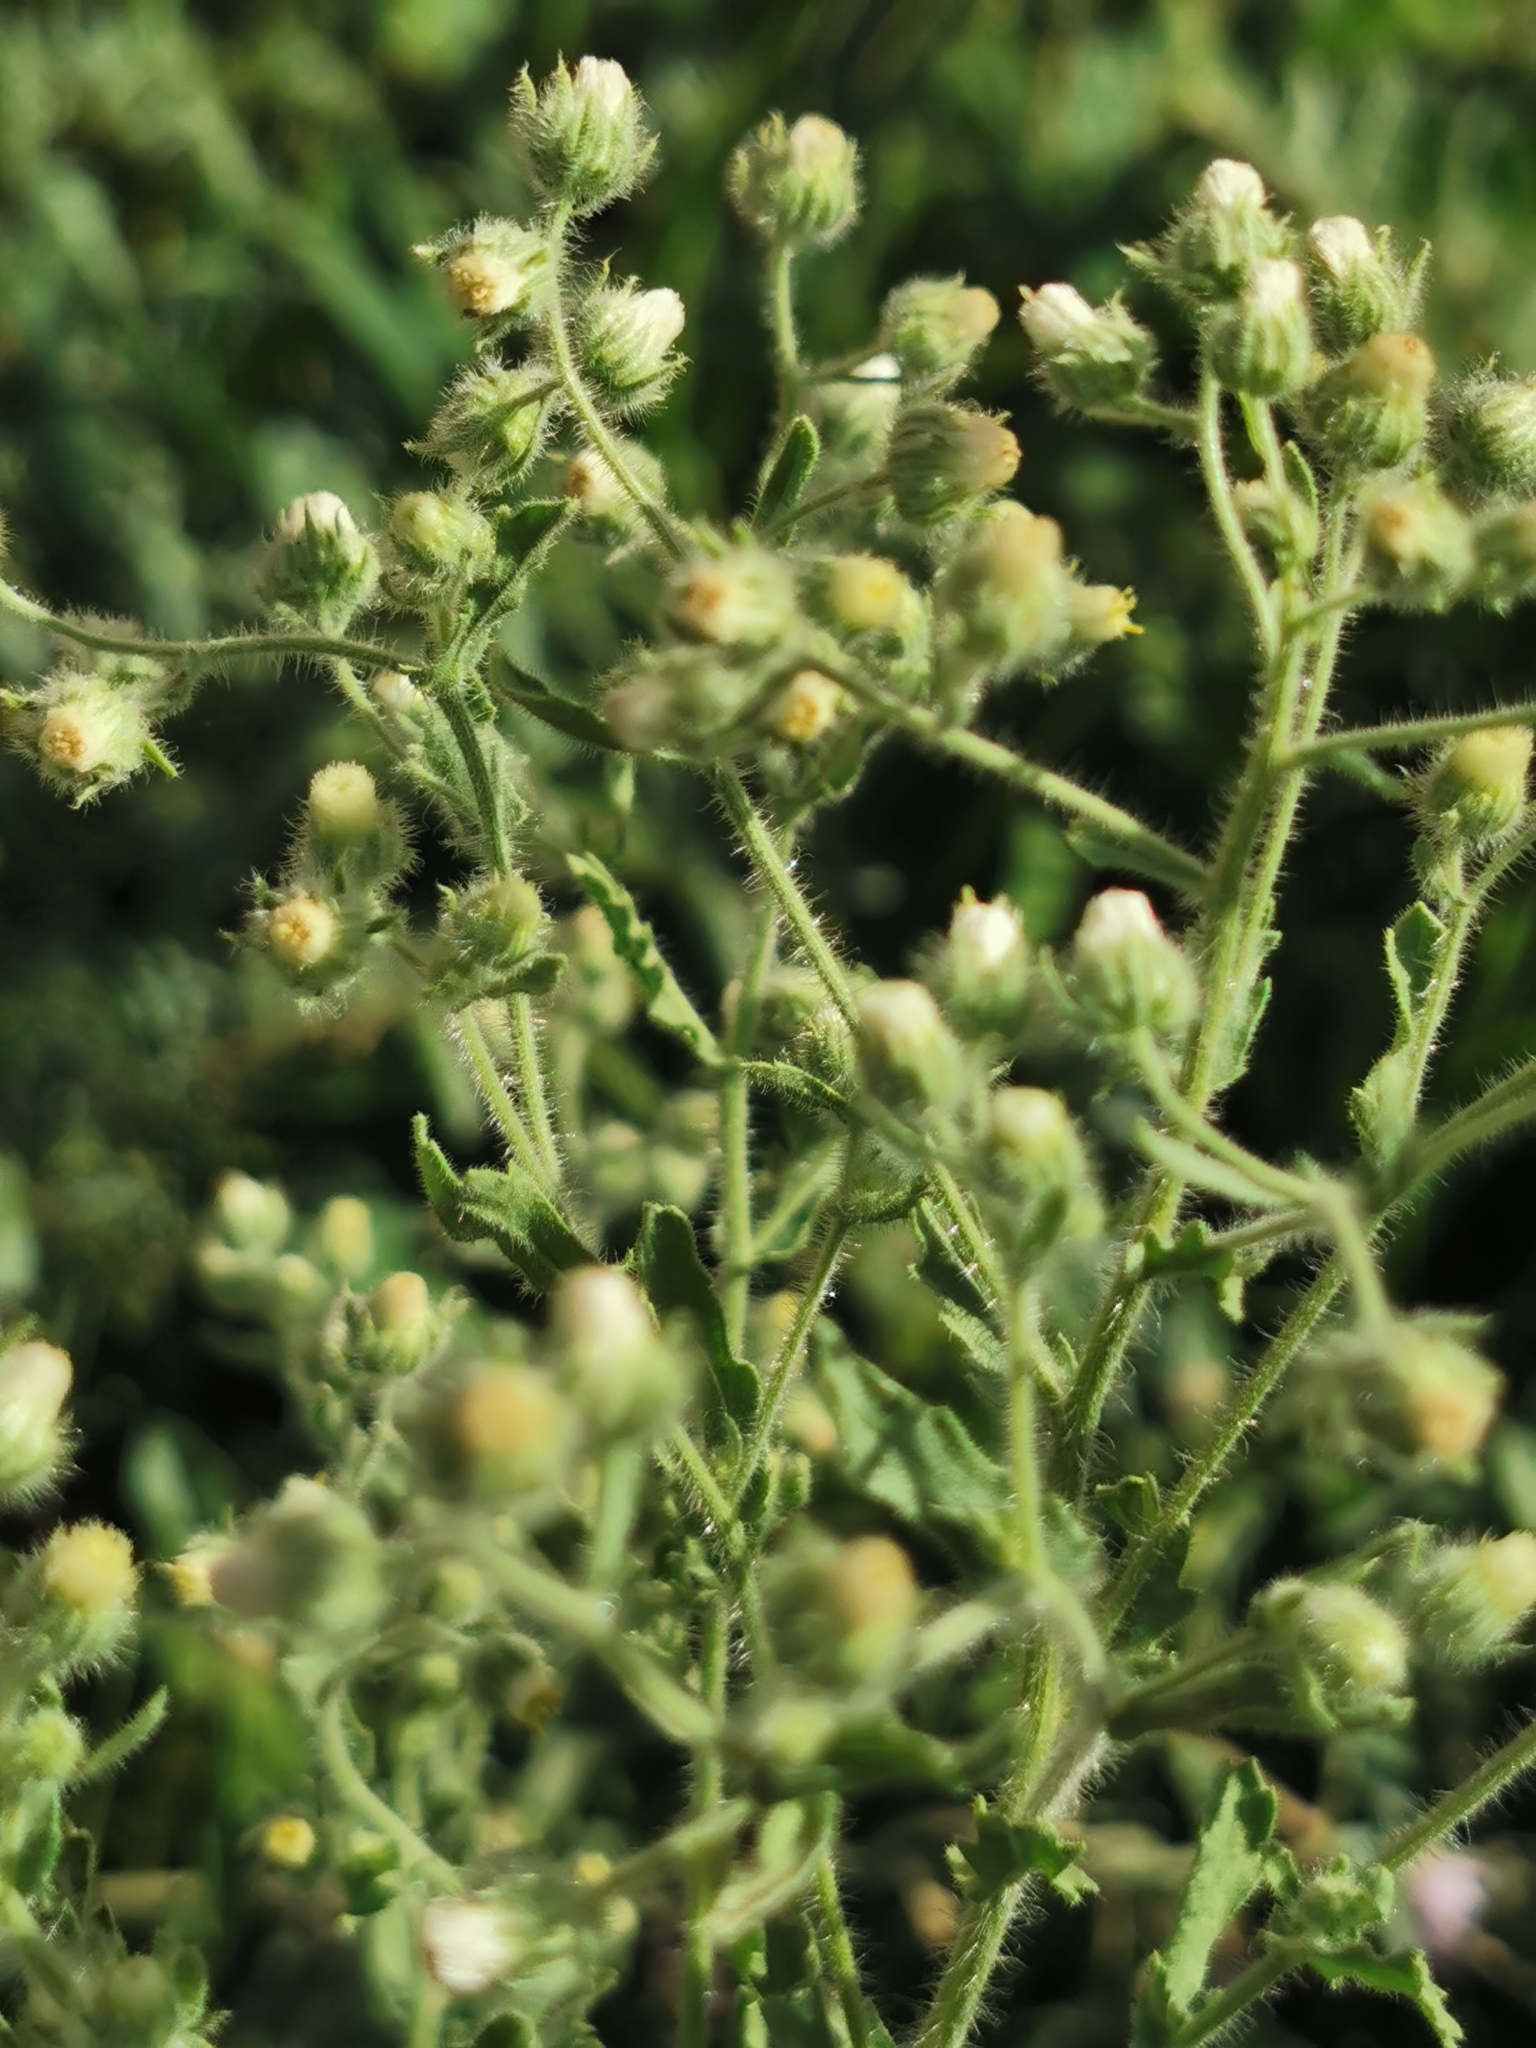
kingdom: Plantae
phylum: Tracheophyta
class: Magnoliopsida
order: Asterales
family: Asteraceae
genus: Laennecia
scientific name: Laennecia coulteri
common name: Coulter's woolwort
